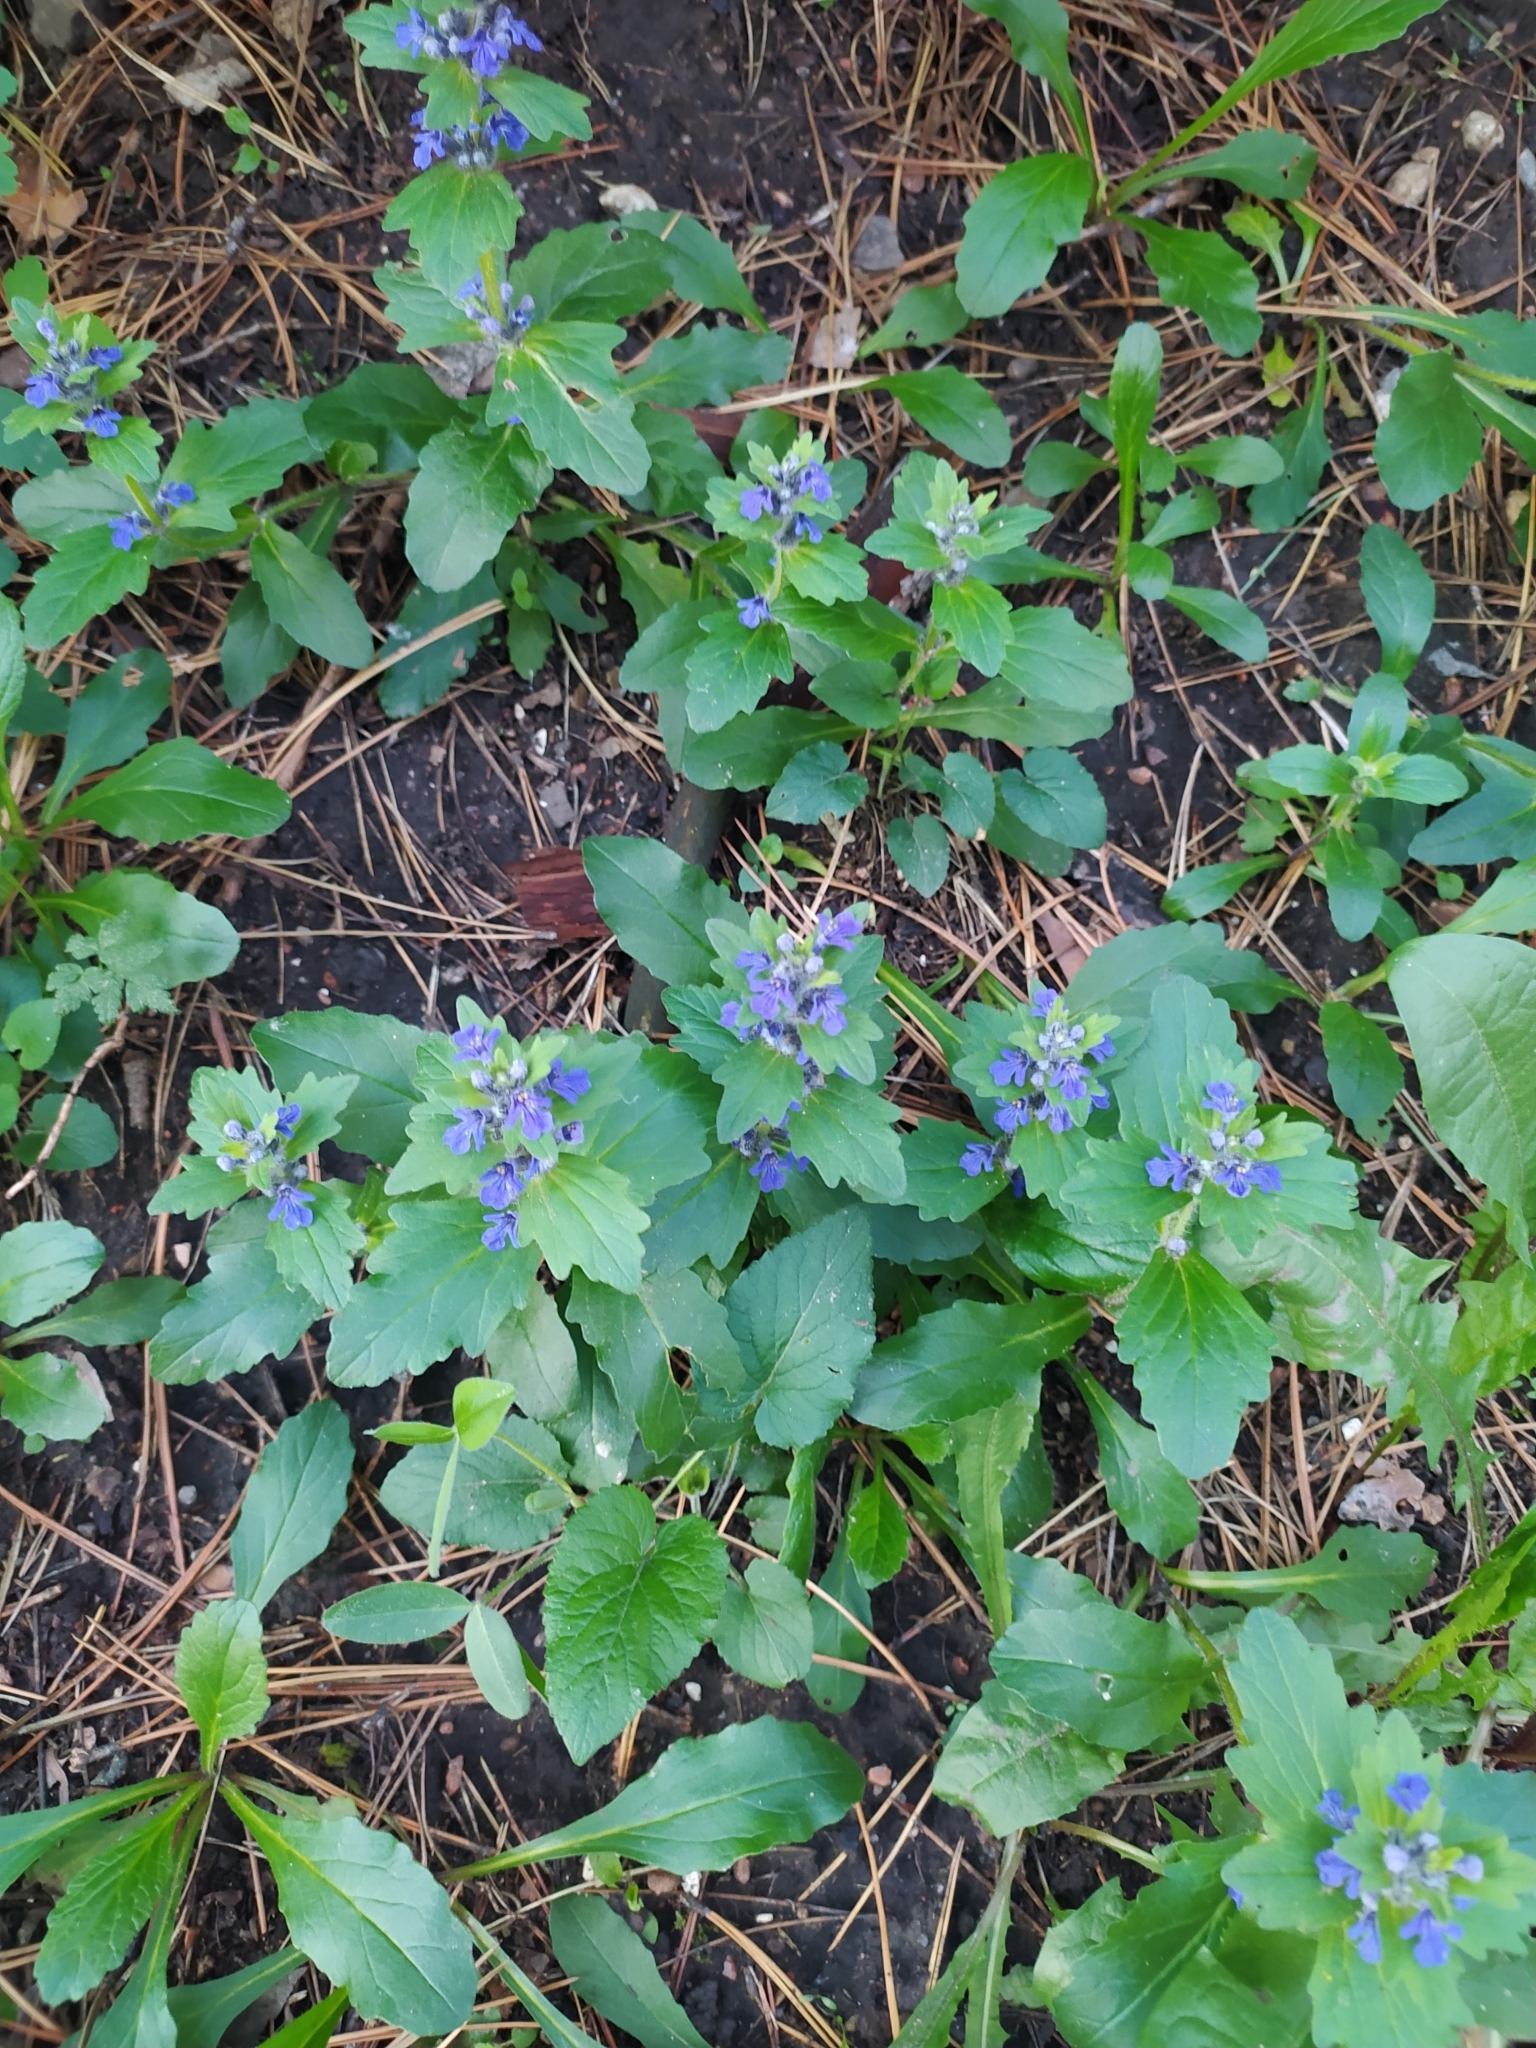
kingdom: Plantae
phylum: Tracheophyta
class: Magnoliopsida
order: Lamiales
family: Lamiaceae
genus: Ajuga
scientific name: Ajuga genevensis
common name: Blue bugle
